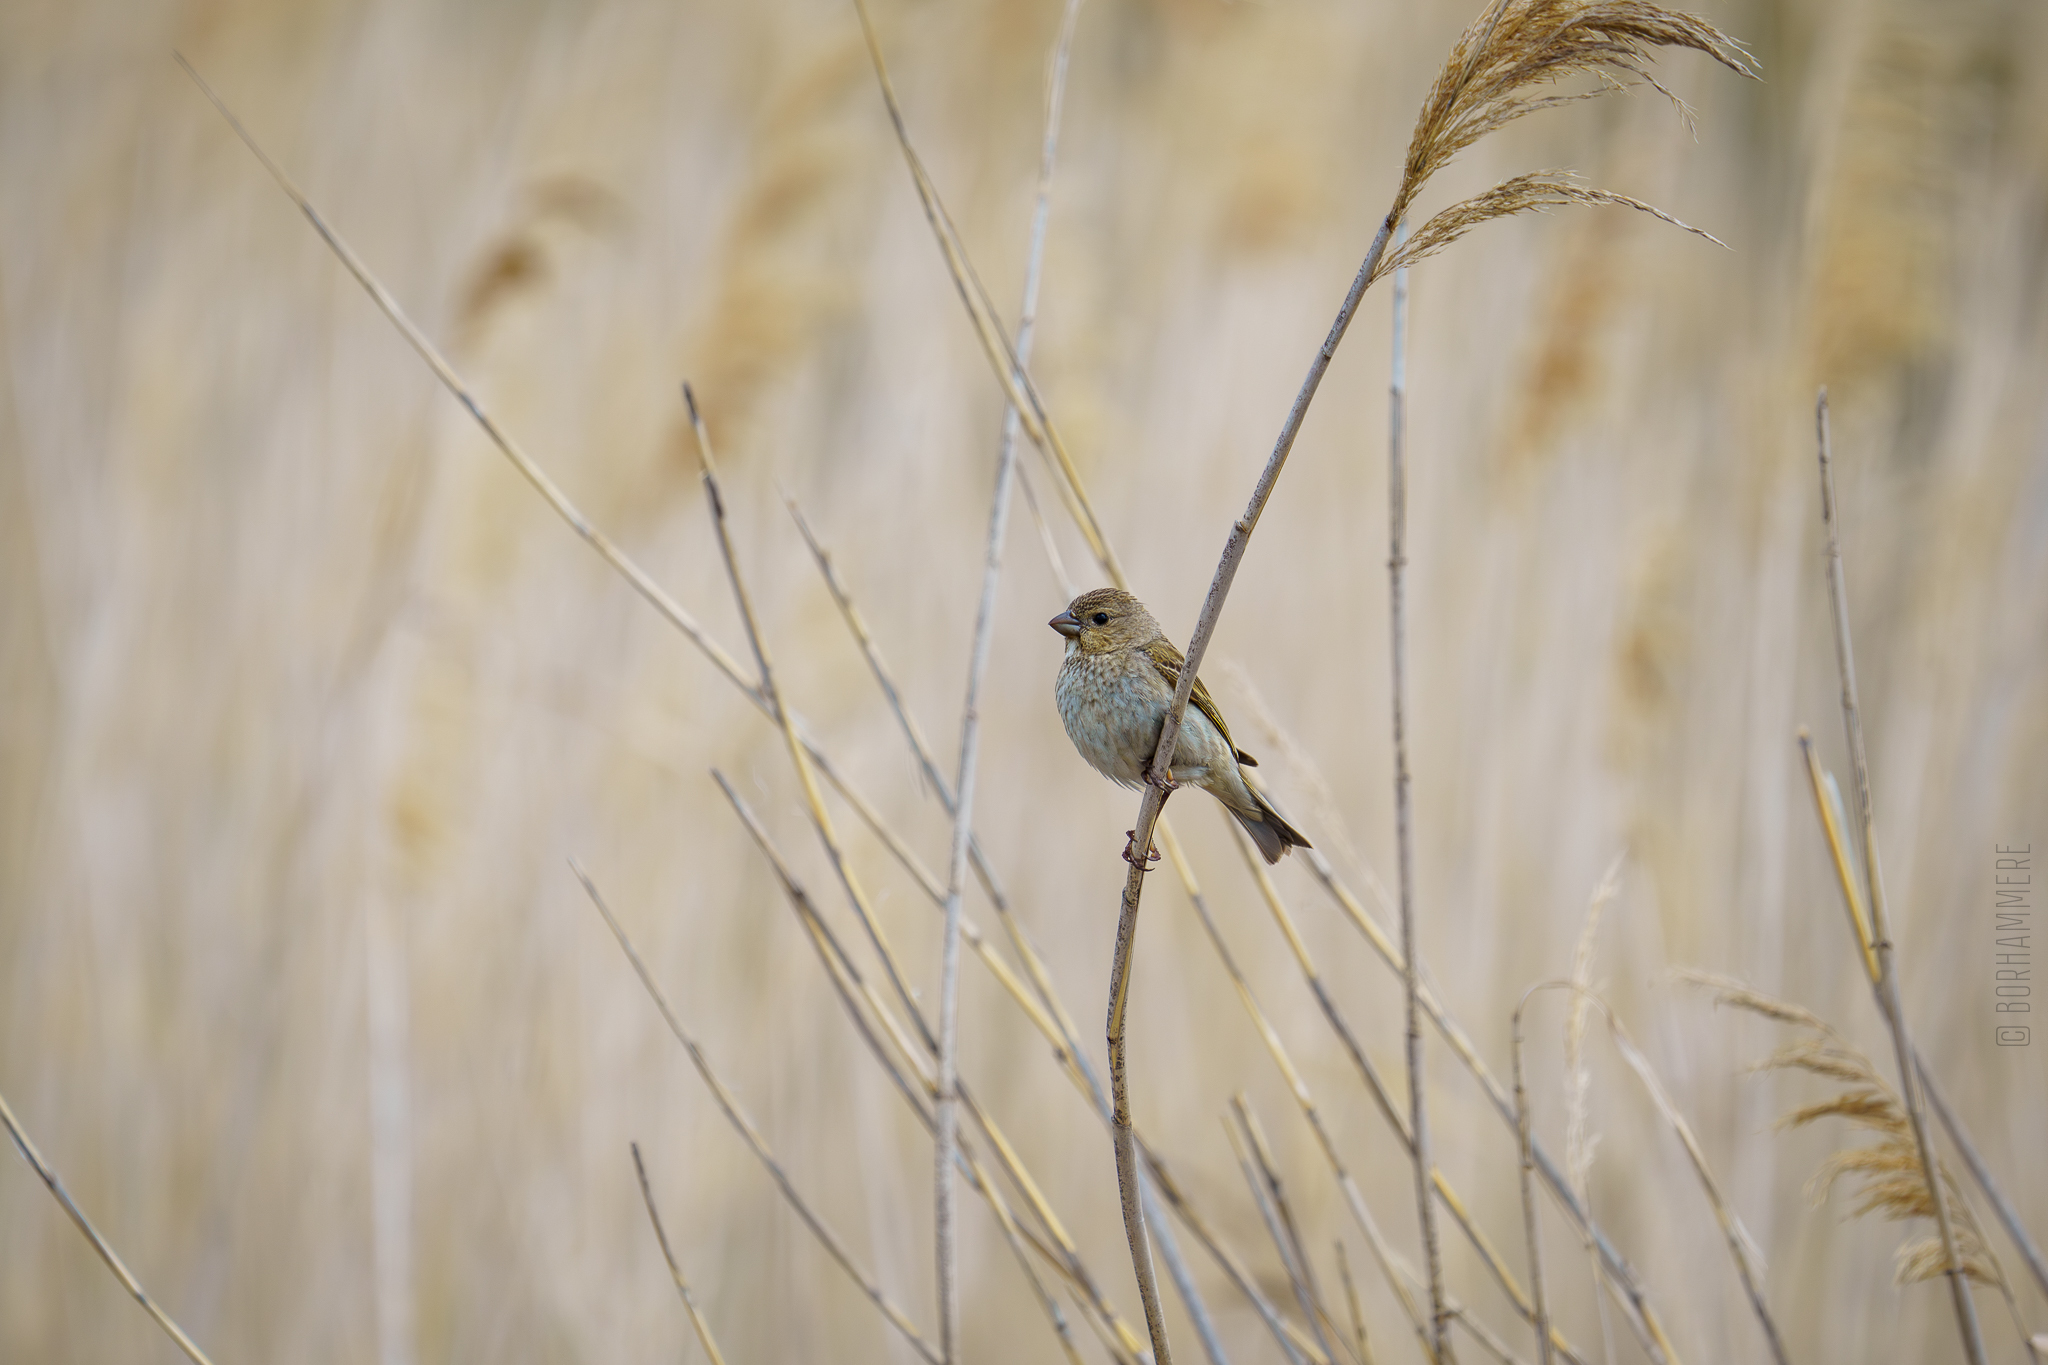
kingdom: Animalia
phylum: Chordata
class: Aves
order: Passeriformes
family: Emberizidae
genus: Emberiza
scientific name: Emberiza schoeniclus
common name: Reed bunting
